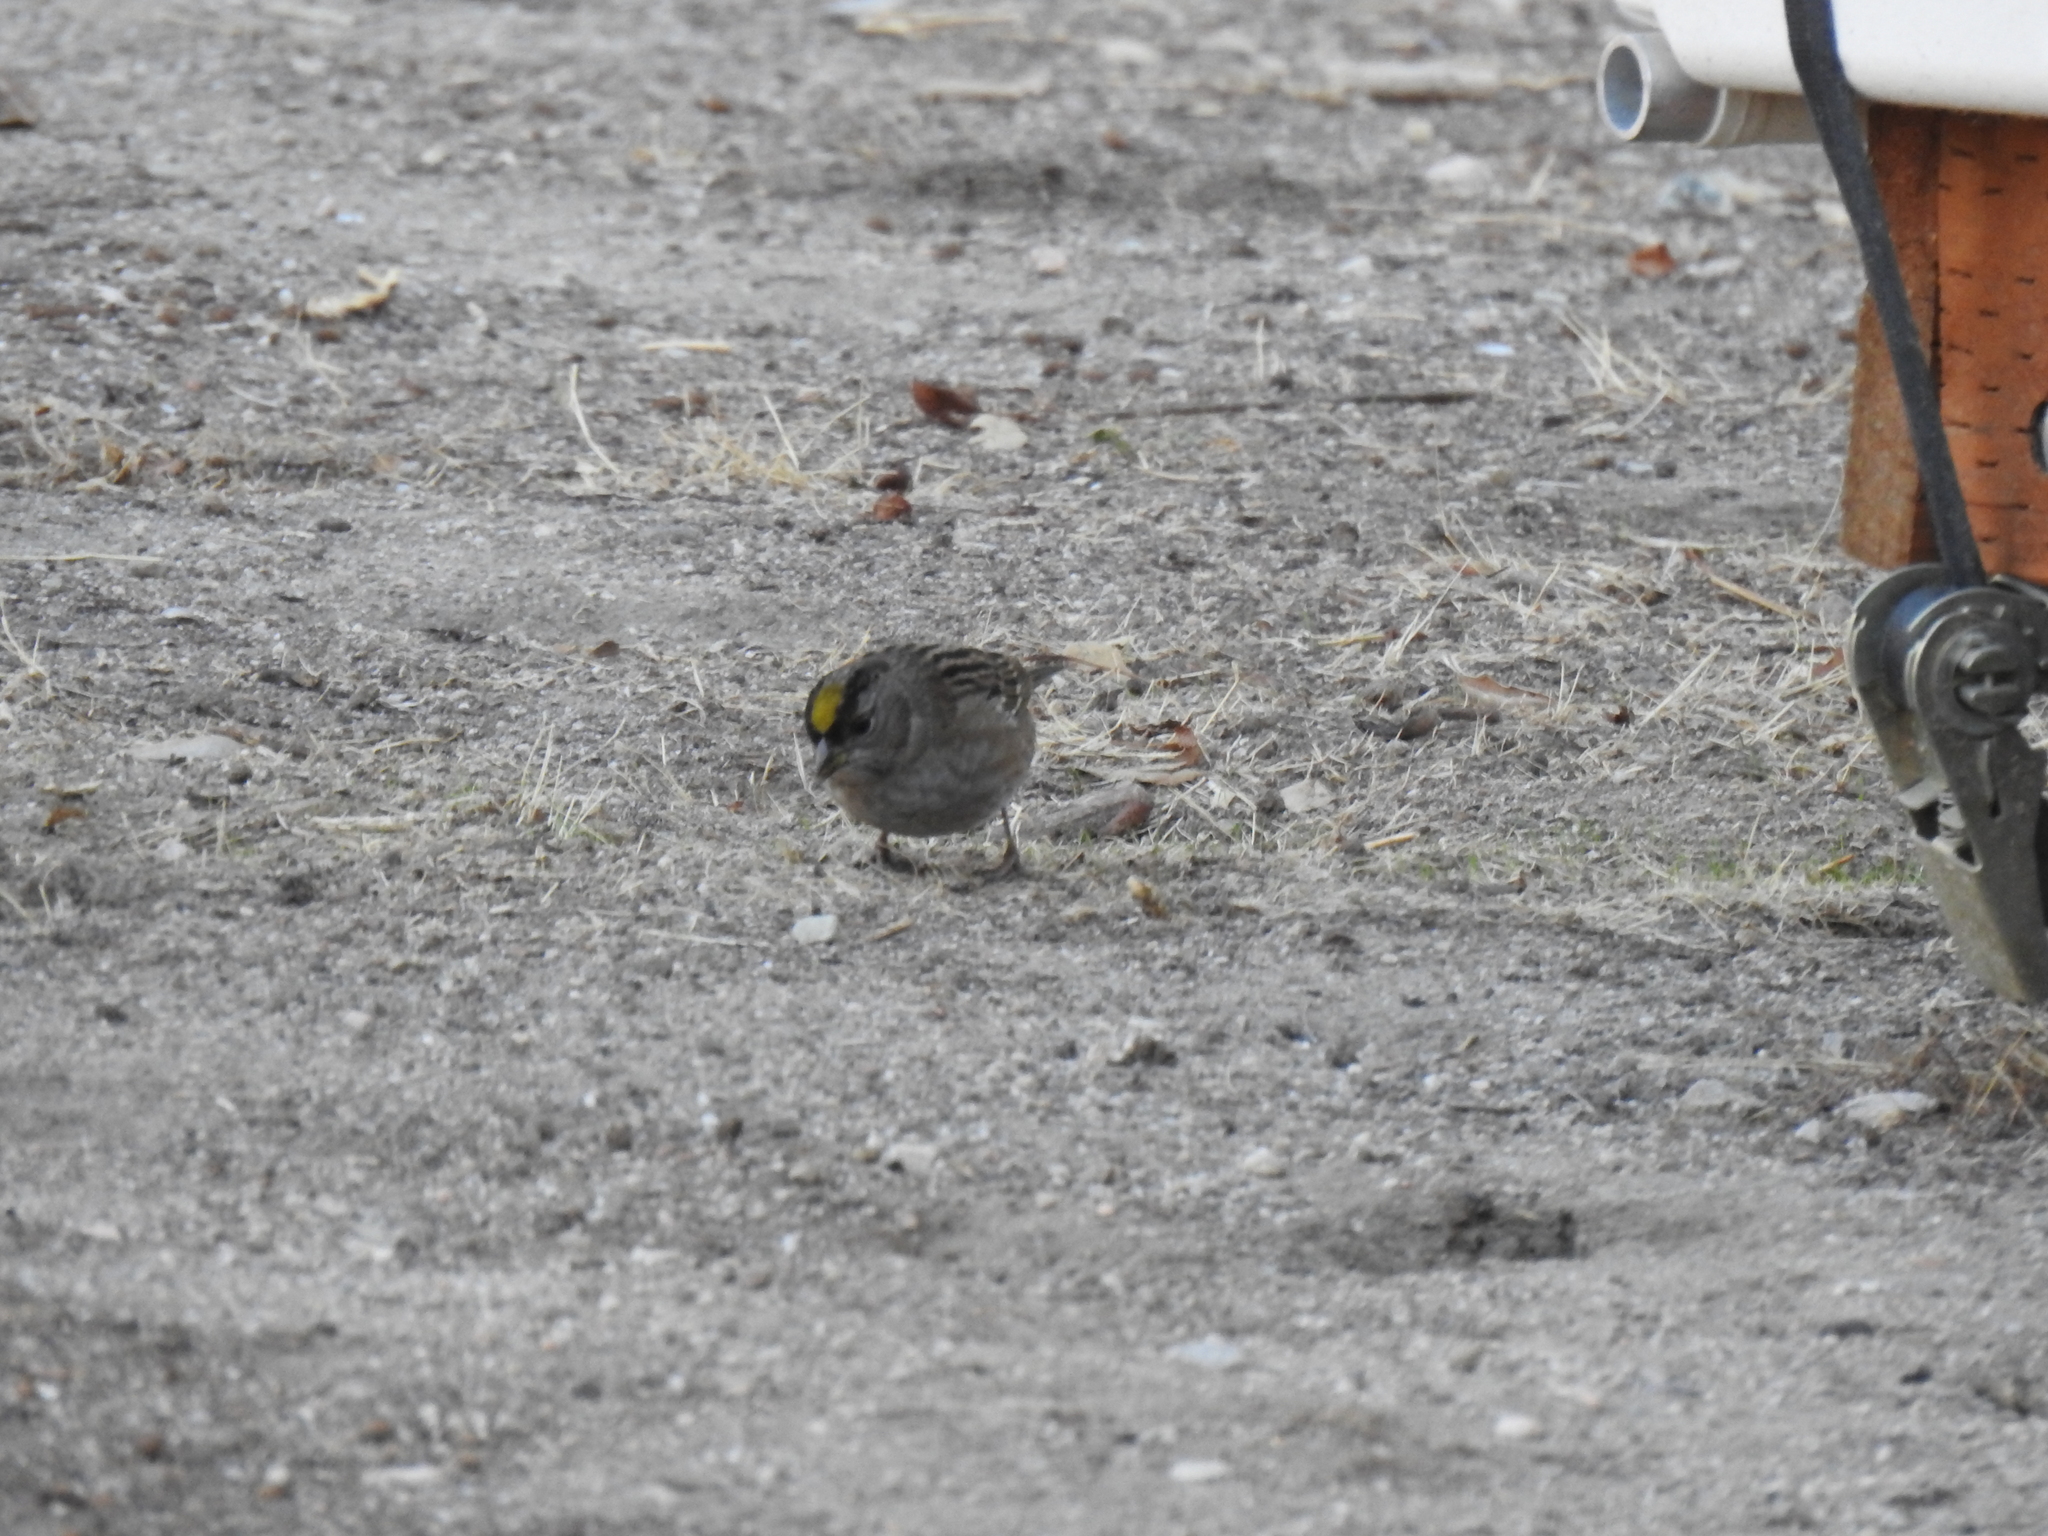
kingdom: Animalia
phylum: Chordata
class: Aves
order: Passeriformes
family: Passerellidae
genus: Zonotrichia
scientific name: Zonotrichia atricapilla
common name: Golden-crowned sparrow
